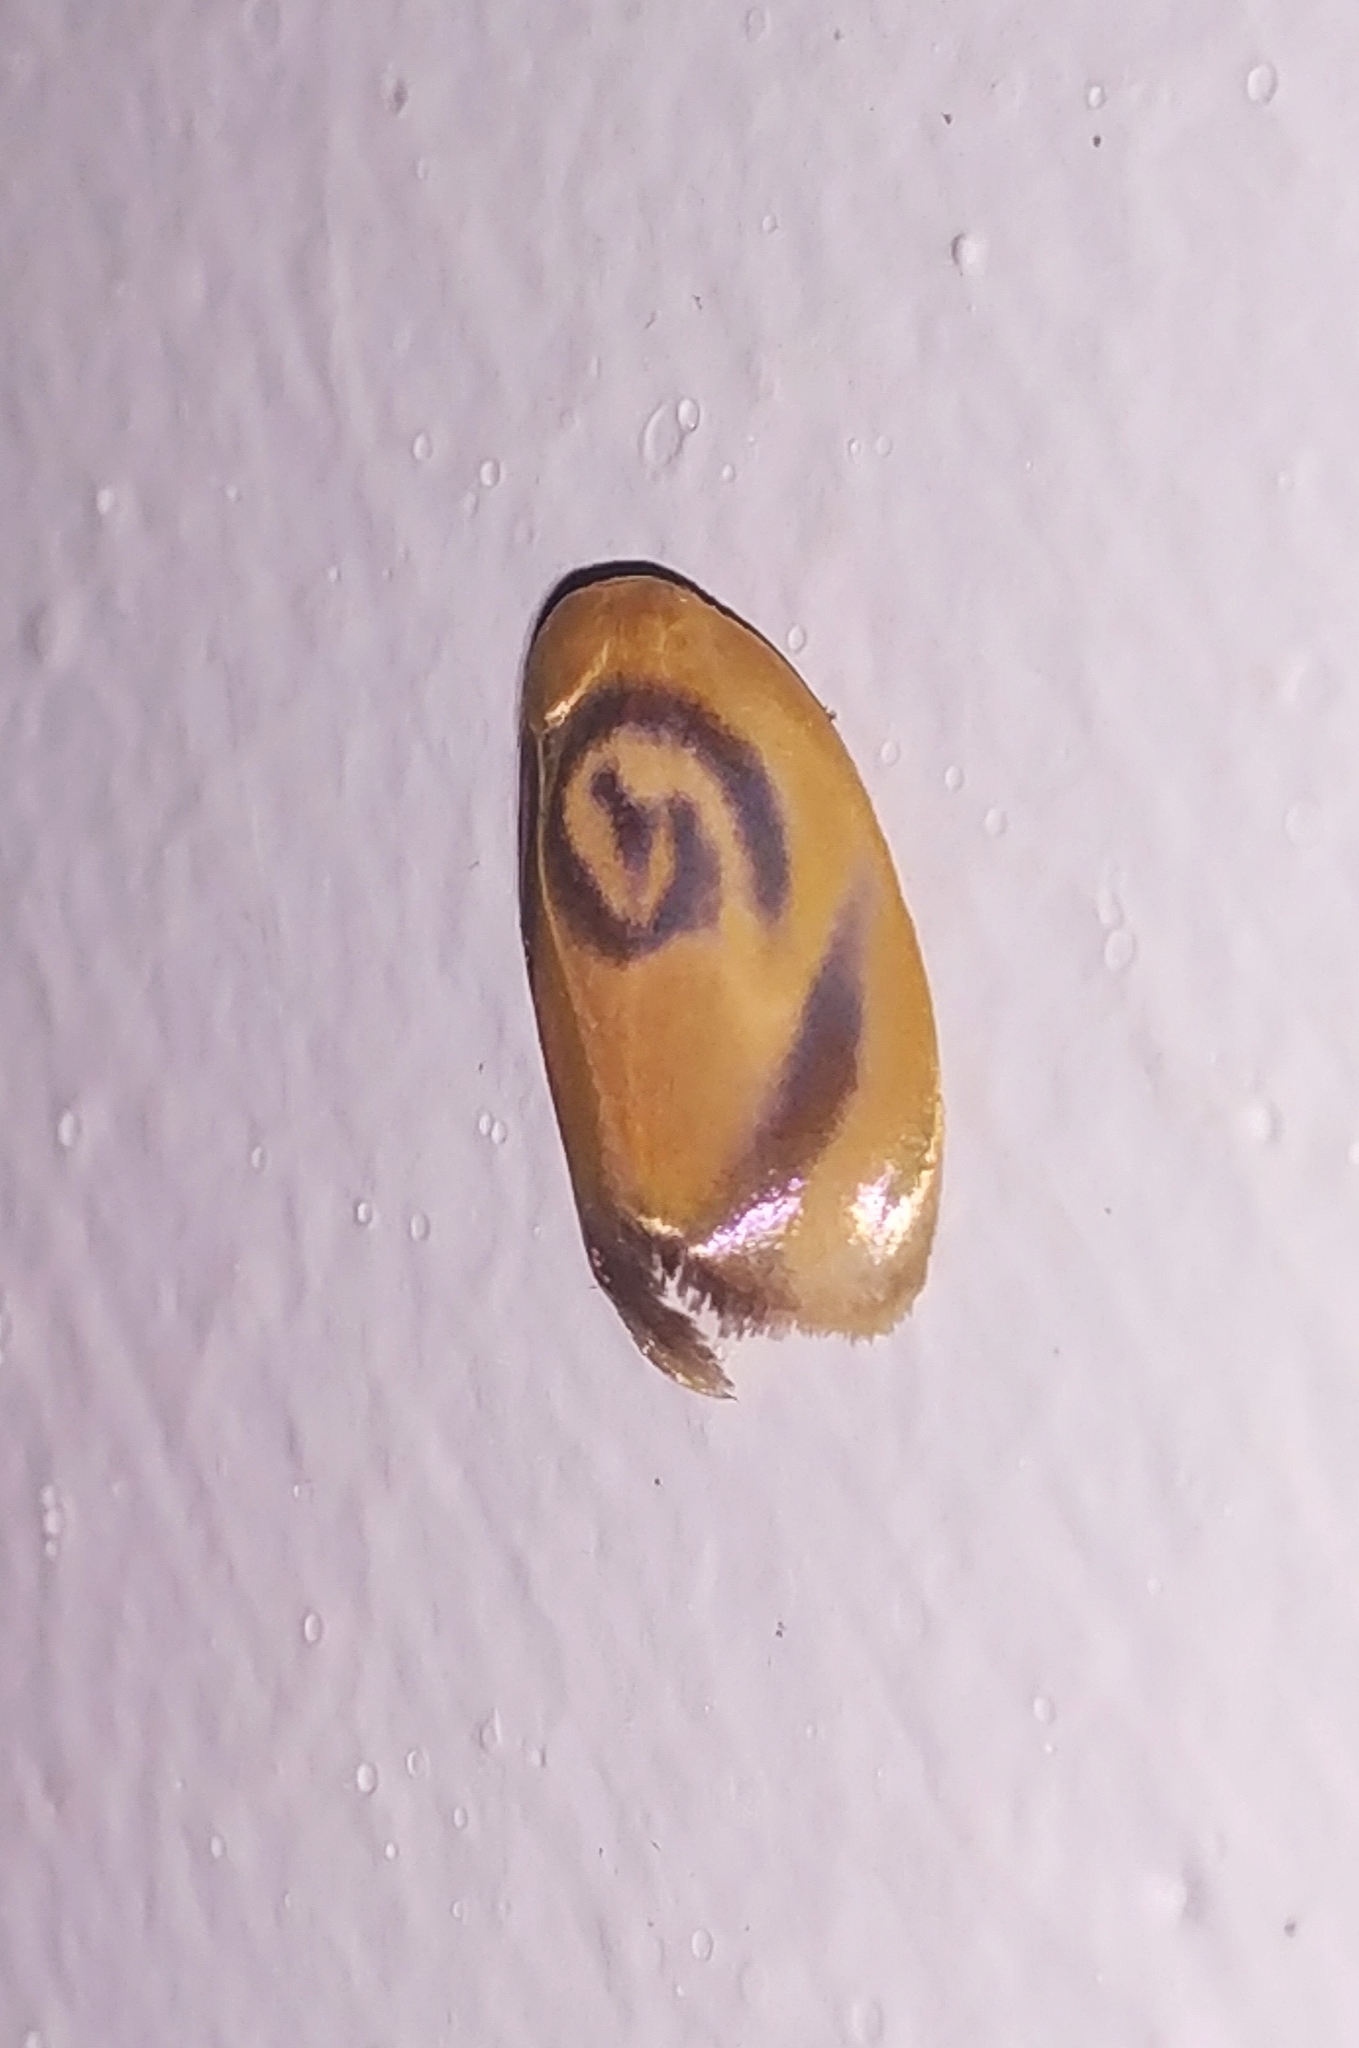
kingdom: Animalia
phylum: Arthropoda
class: Insecta
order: Lepidoptera
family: Erebidae
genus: Trischalis
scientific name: Trischalis subaurana
